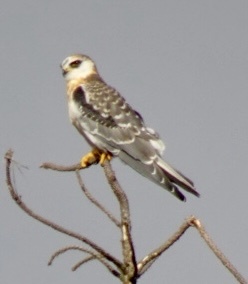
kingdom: Animalia
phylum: Chordata
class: Aves
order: Accipitriformes
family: Accipitridae
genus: Elanus
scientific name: Elanus leucurus
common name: White-tailed kite
